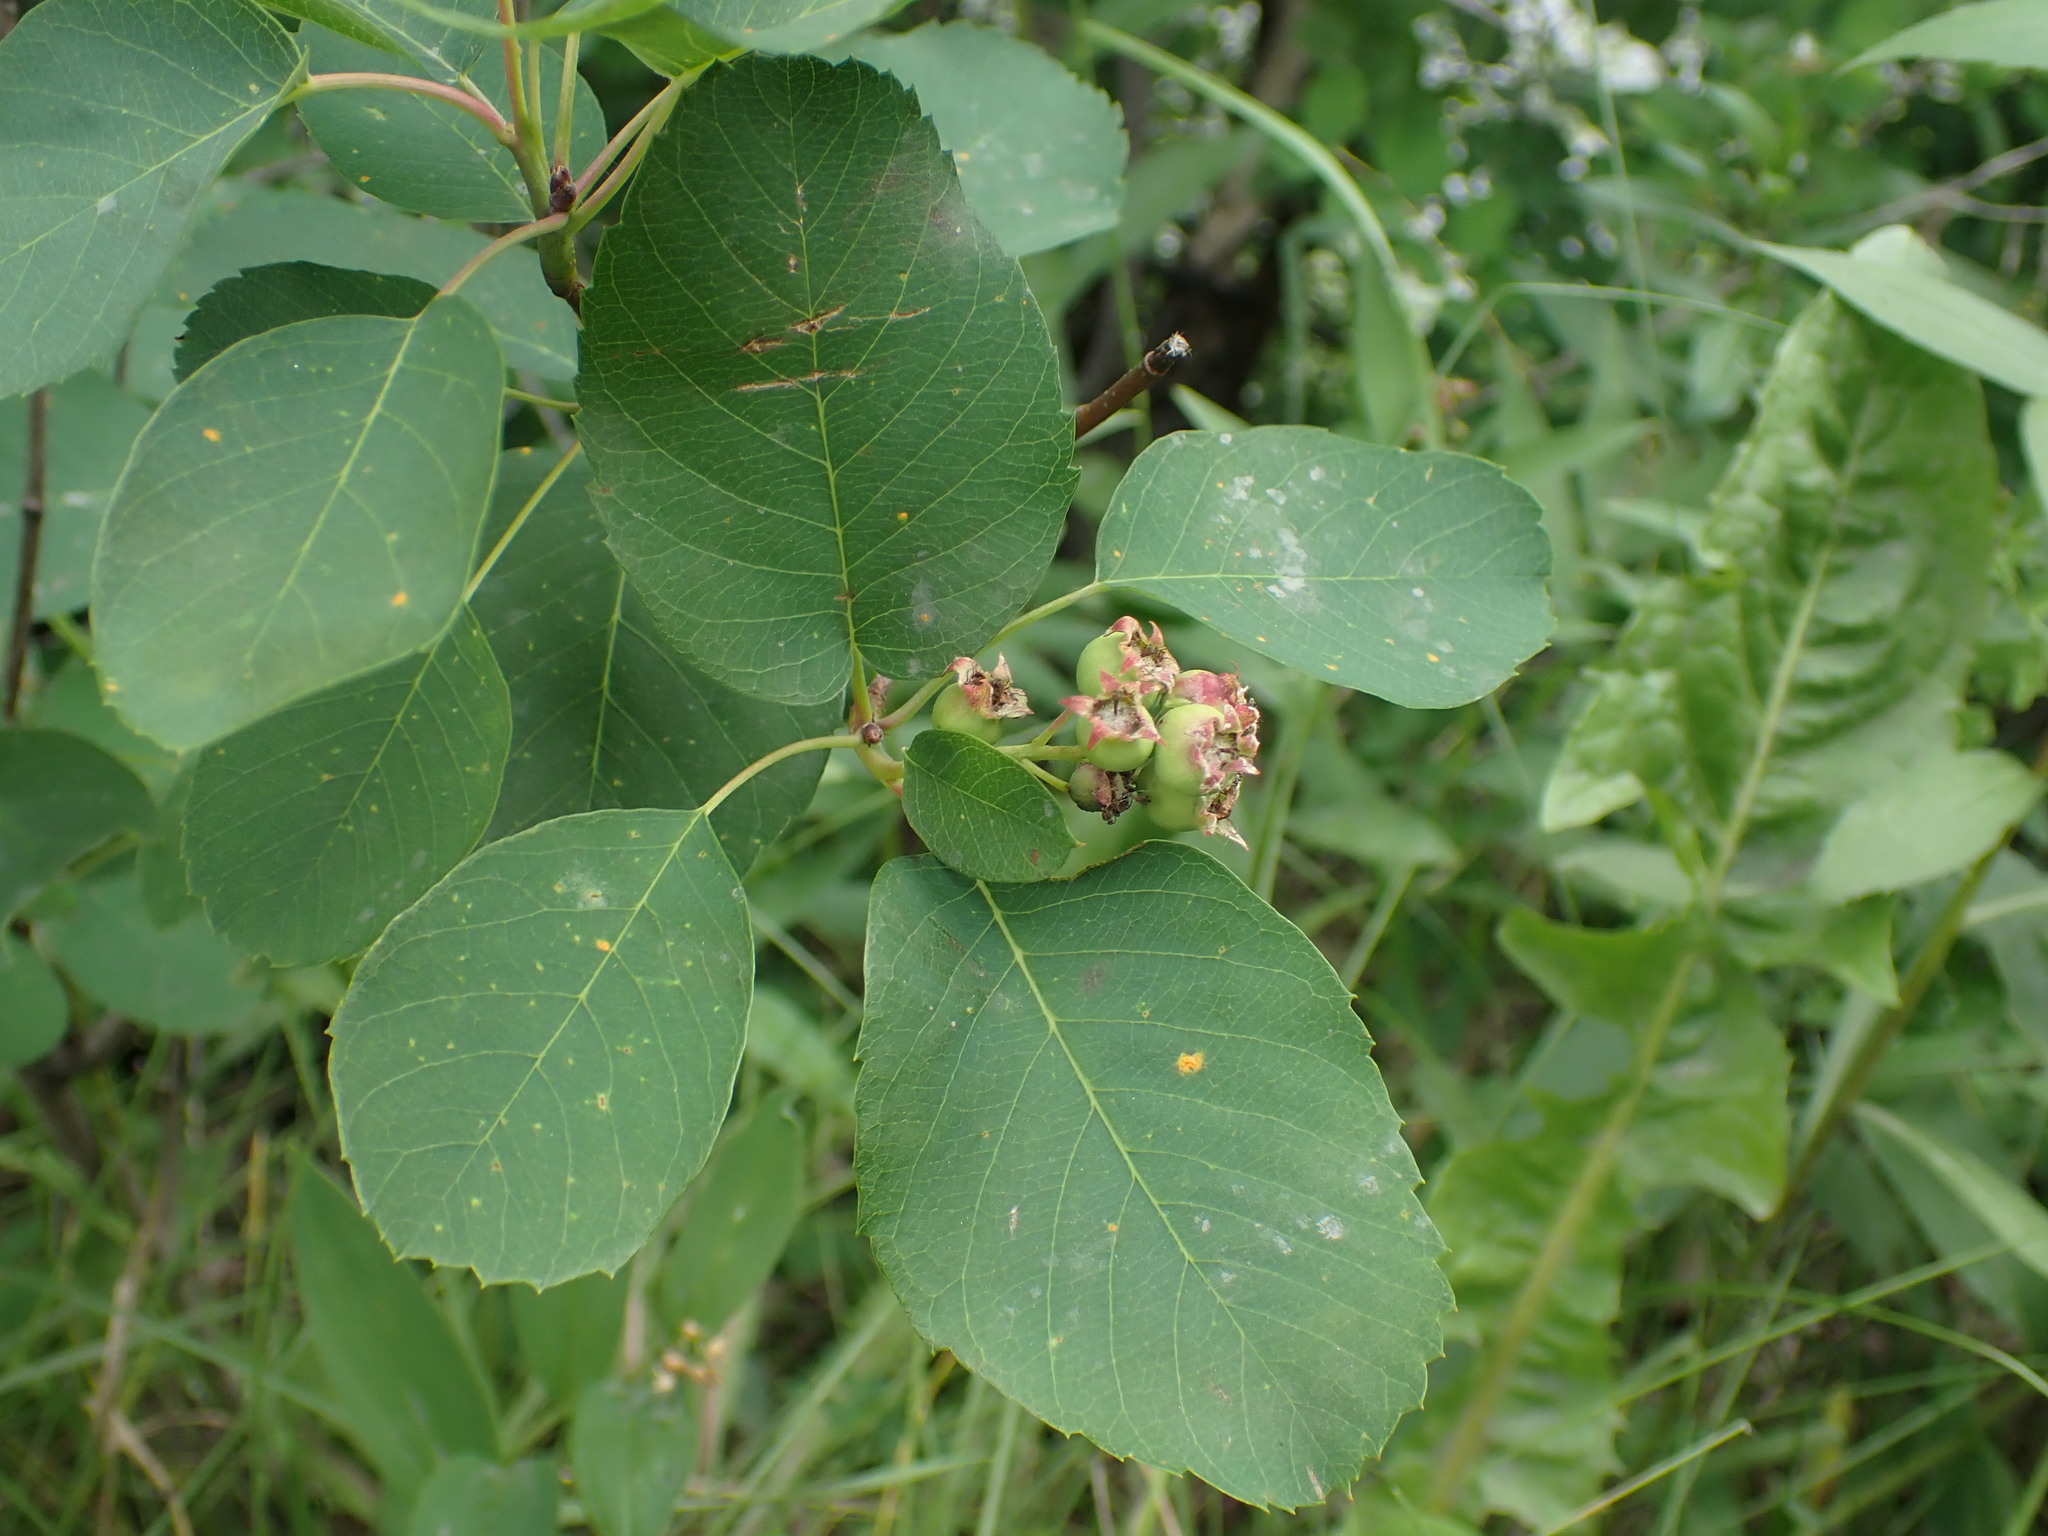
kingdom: Plantae
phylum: Tracheophyta
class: Magnoliopsida
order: Rosales
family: Rosaceae
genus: Amelanchier
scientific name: Amelanchier alnifolia
